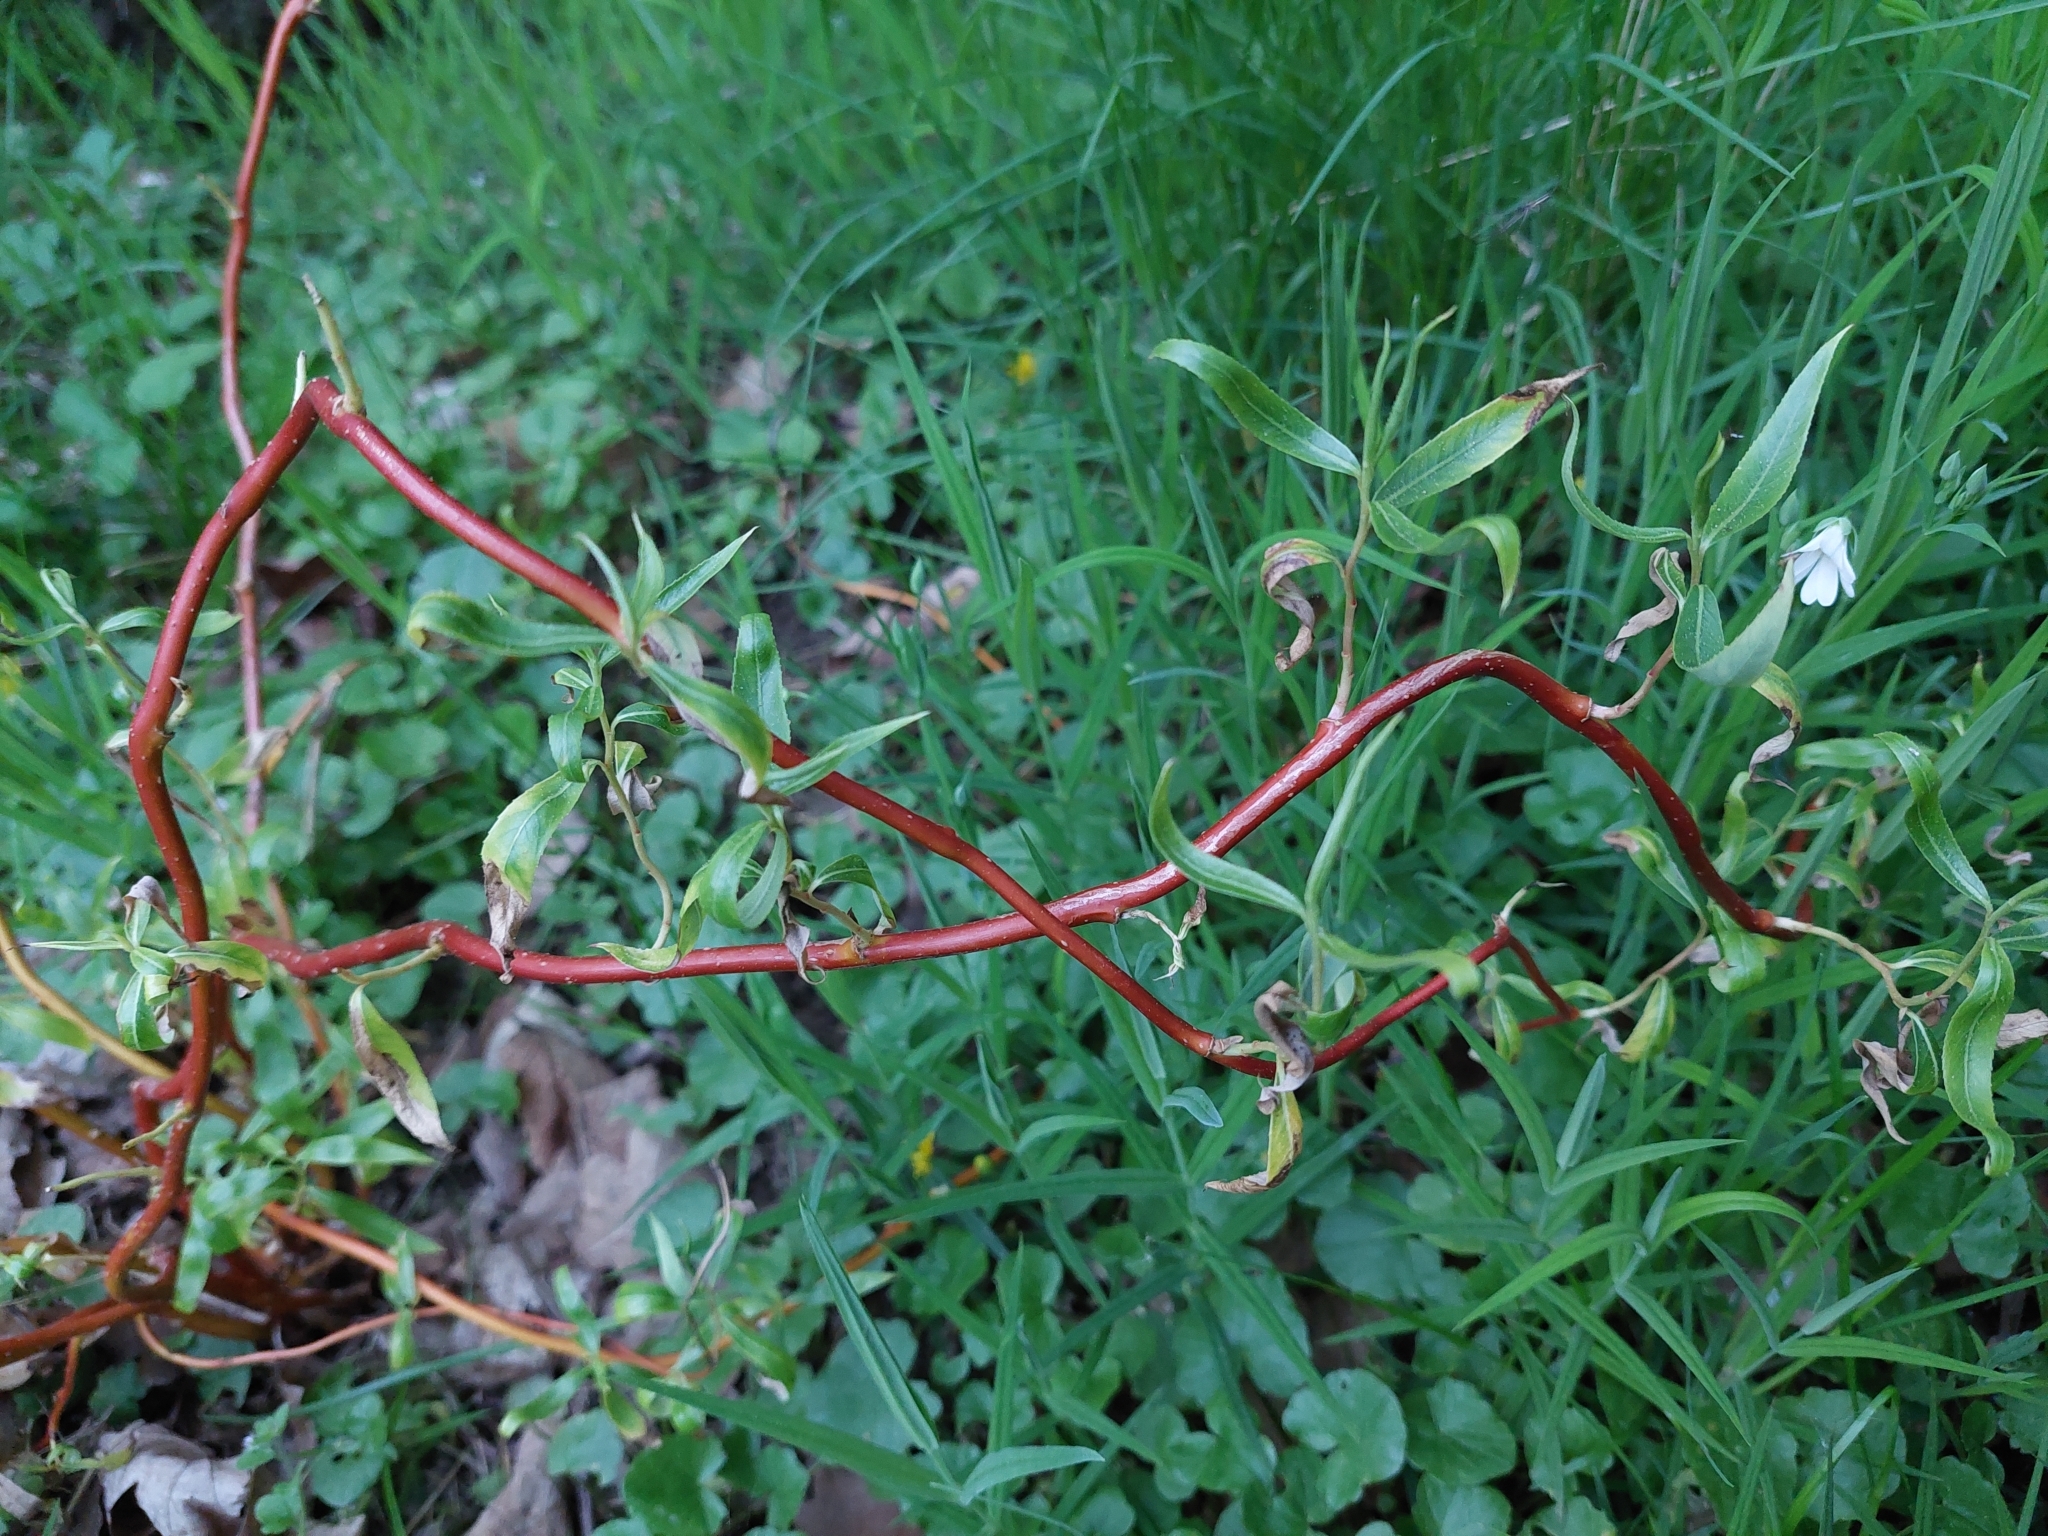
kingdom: Plantae
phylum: Tracheophyta
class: Magnoliopsida
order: Malpighiales
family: Salicaceae
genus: Salix
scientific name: Salix pendulina
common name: Wisconsin weeping willow
